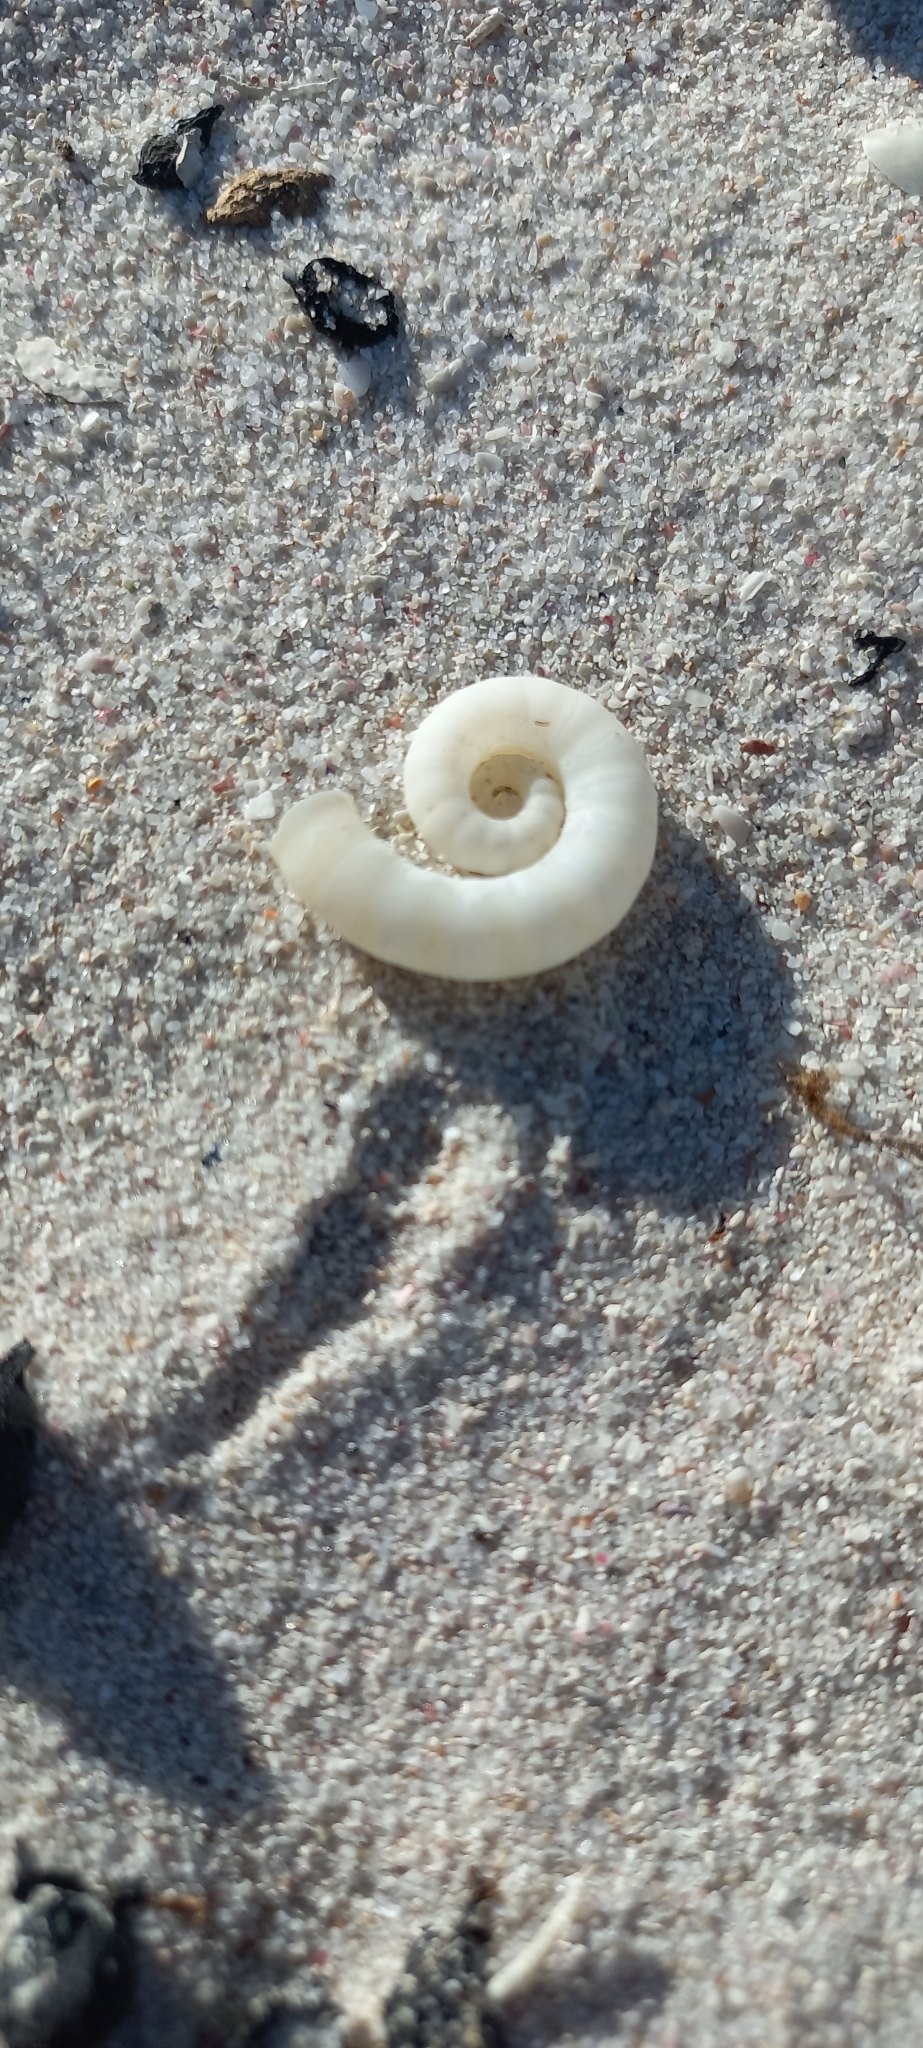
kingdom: Animalia
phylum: Mollusca
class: Cephalopoda
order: Spirulida
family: Spirulidae
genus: Spirula
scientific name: Spirula spirula
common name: Ram's horn squid
